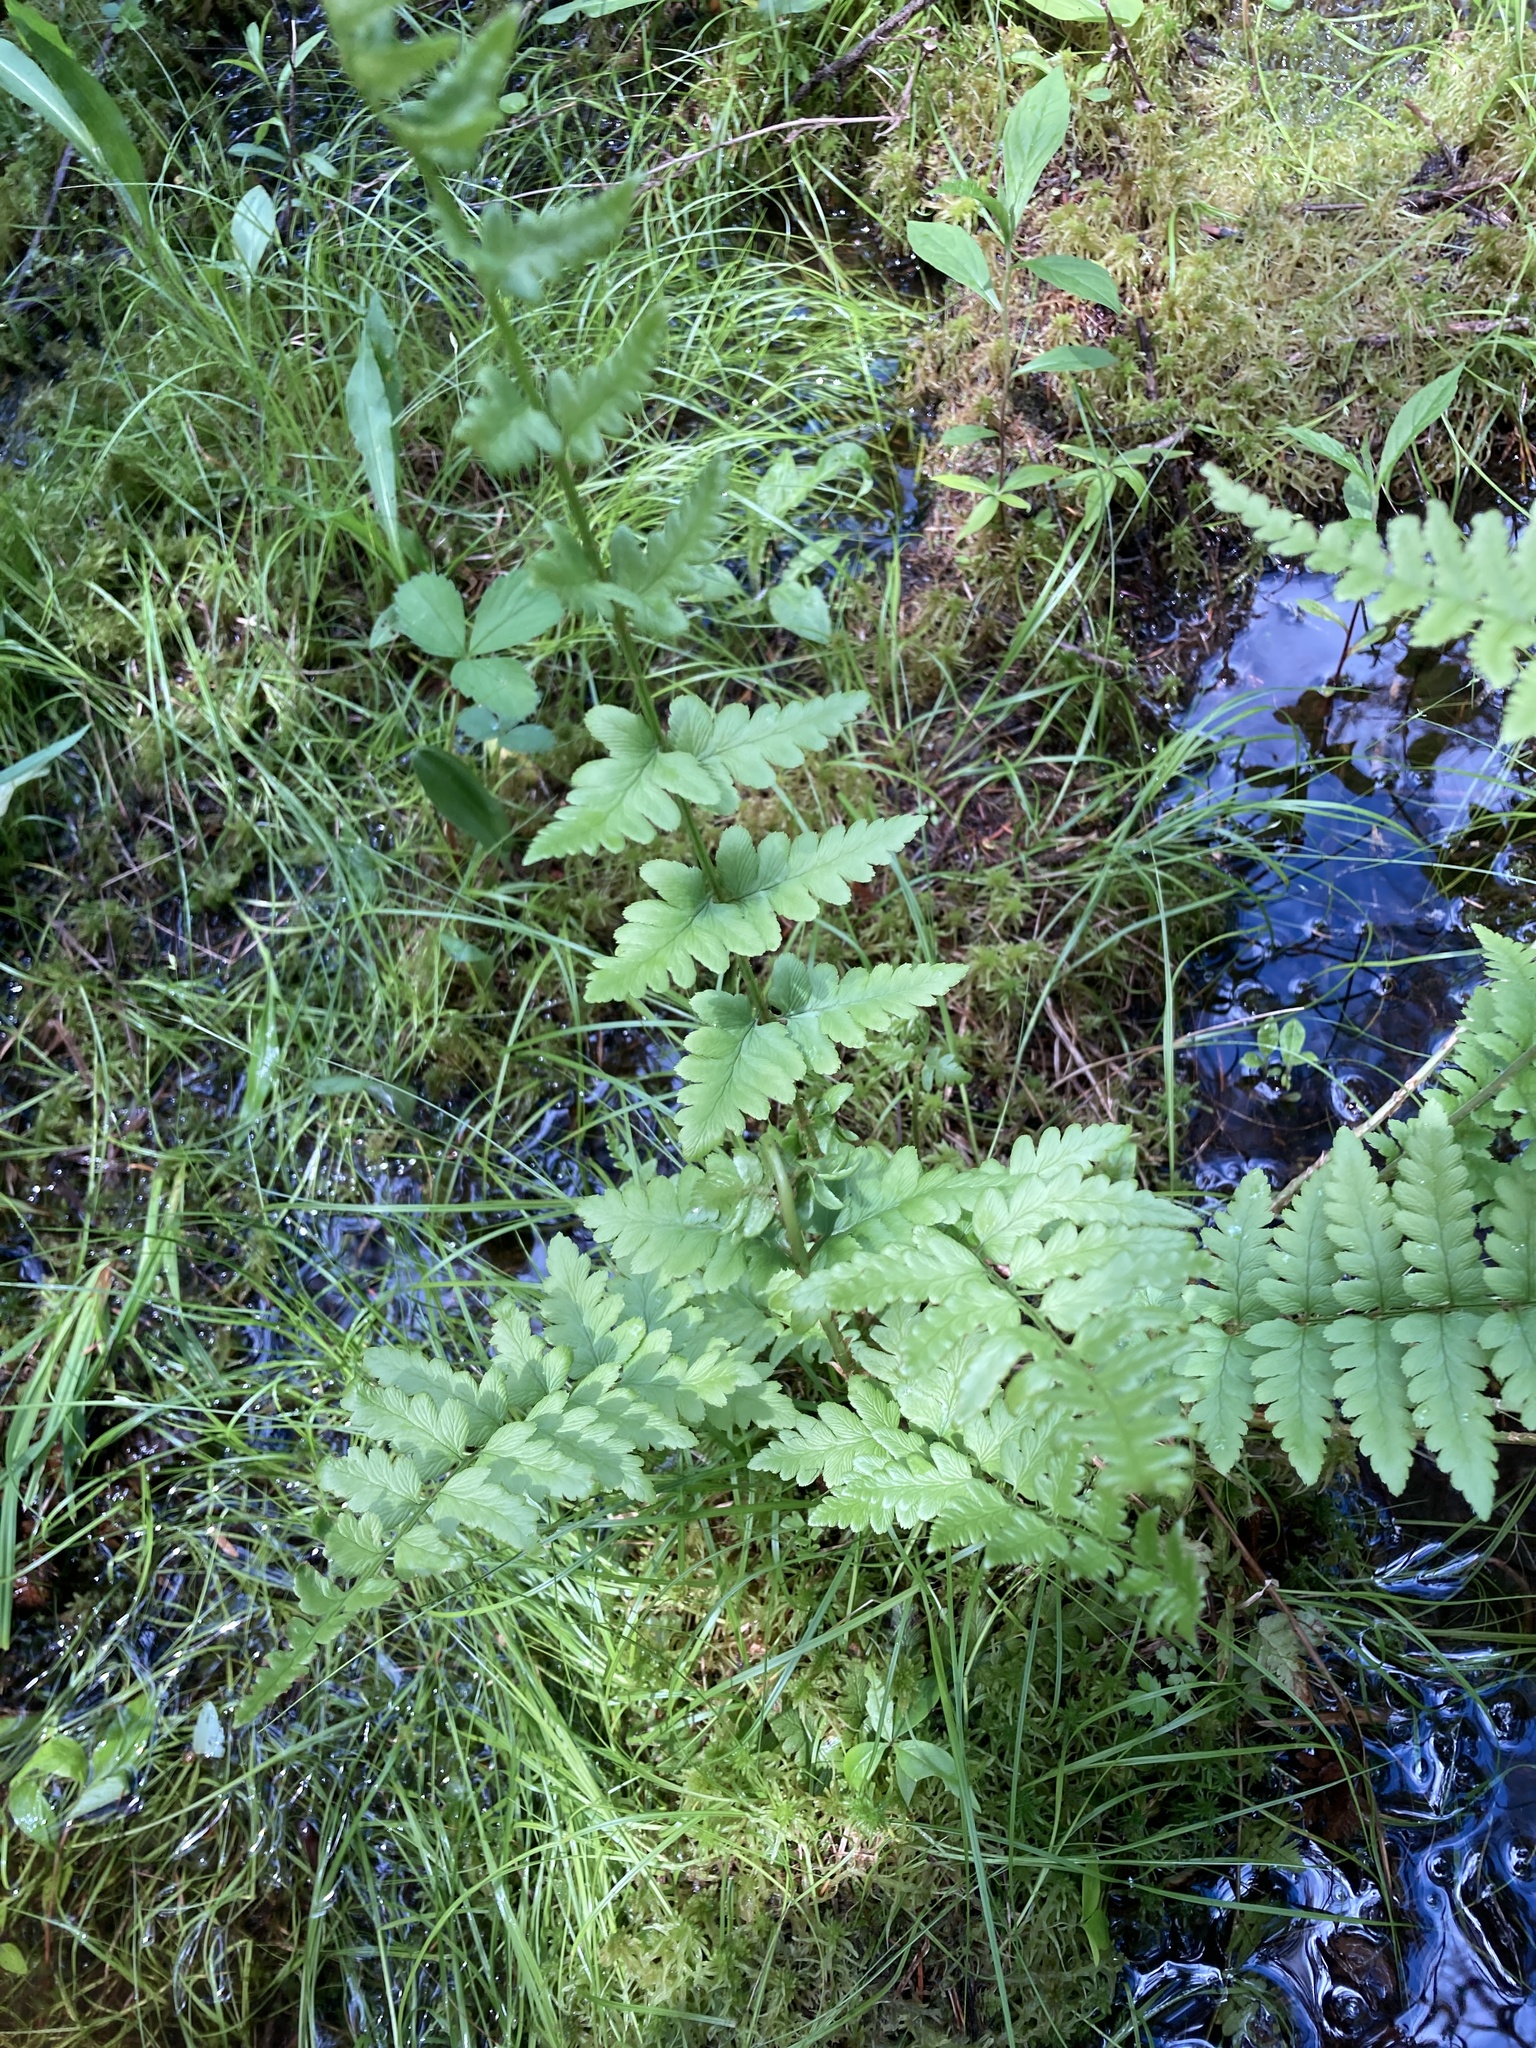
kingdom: Plantae
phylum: Tracheophyta
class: Polypodiopsida
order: Polypodiales
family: Dryopteridaceae
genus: Dryopteris
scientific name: Dryopteris cristata
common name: Crested wood fern
